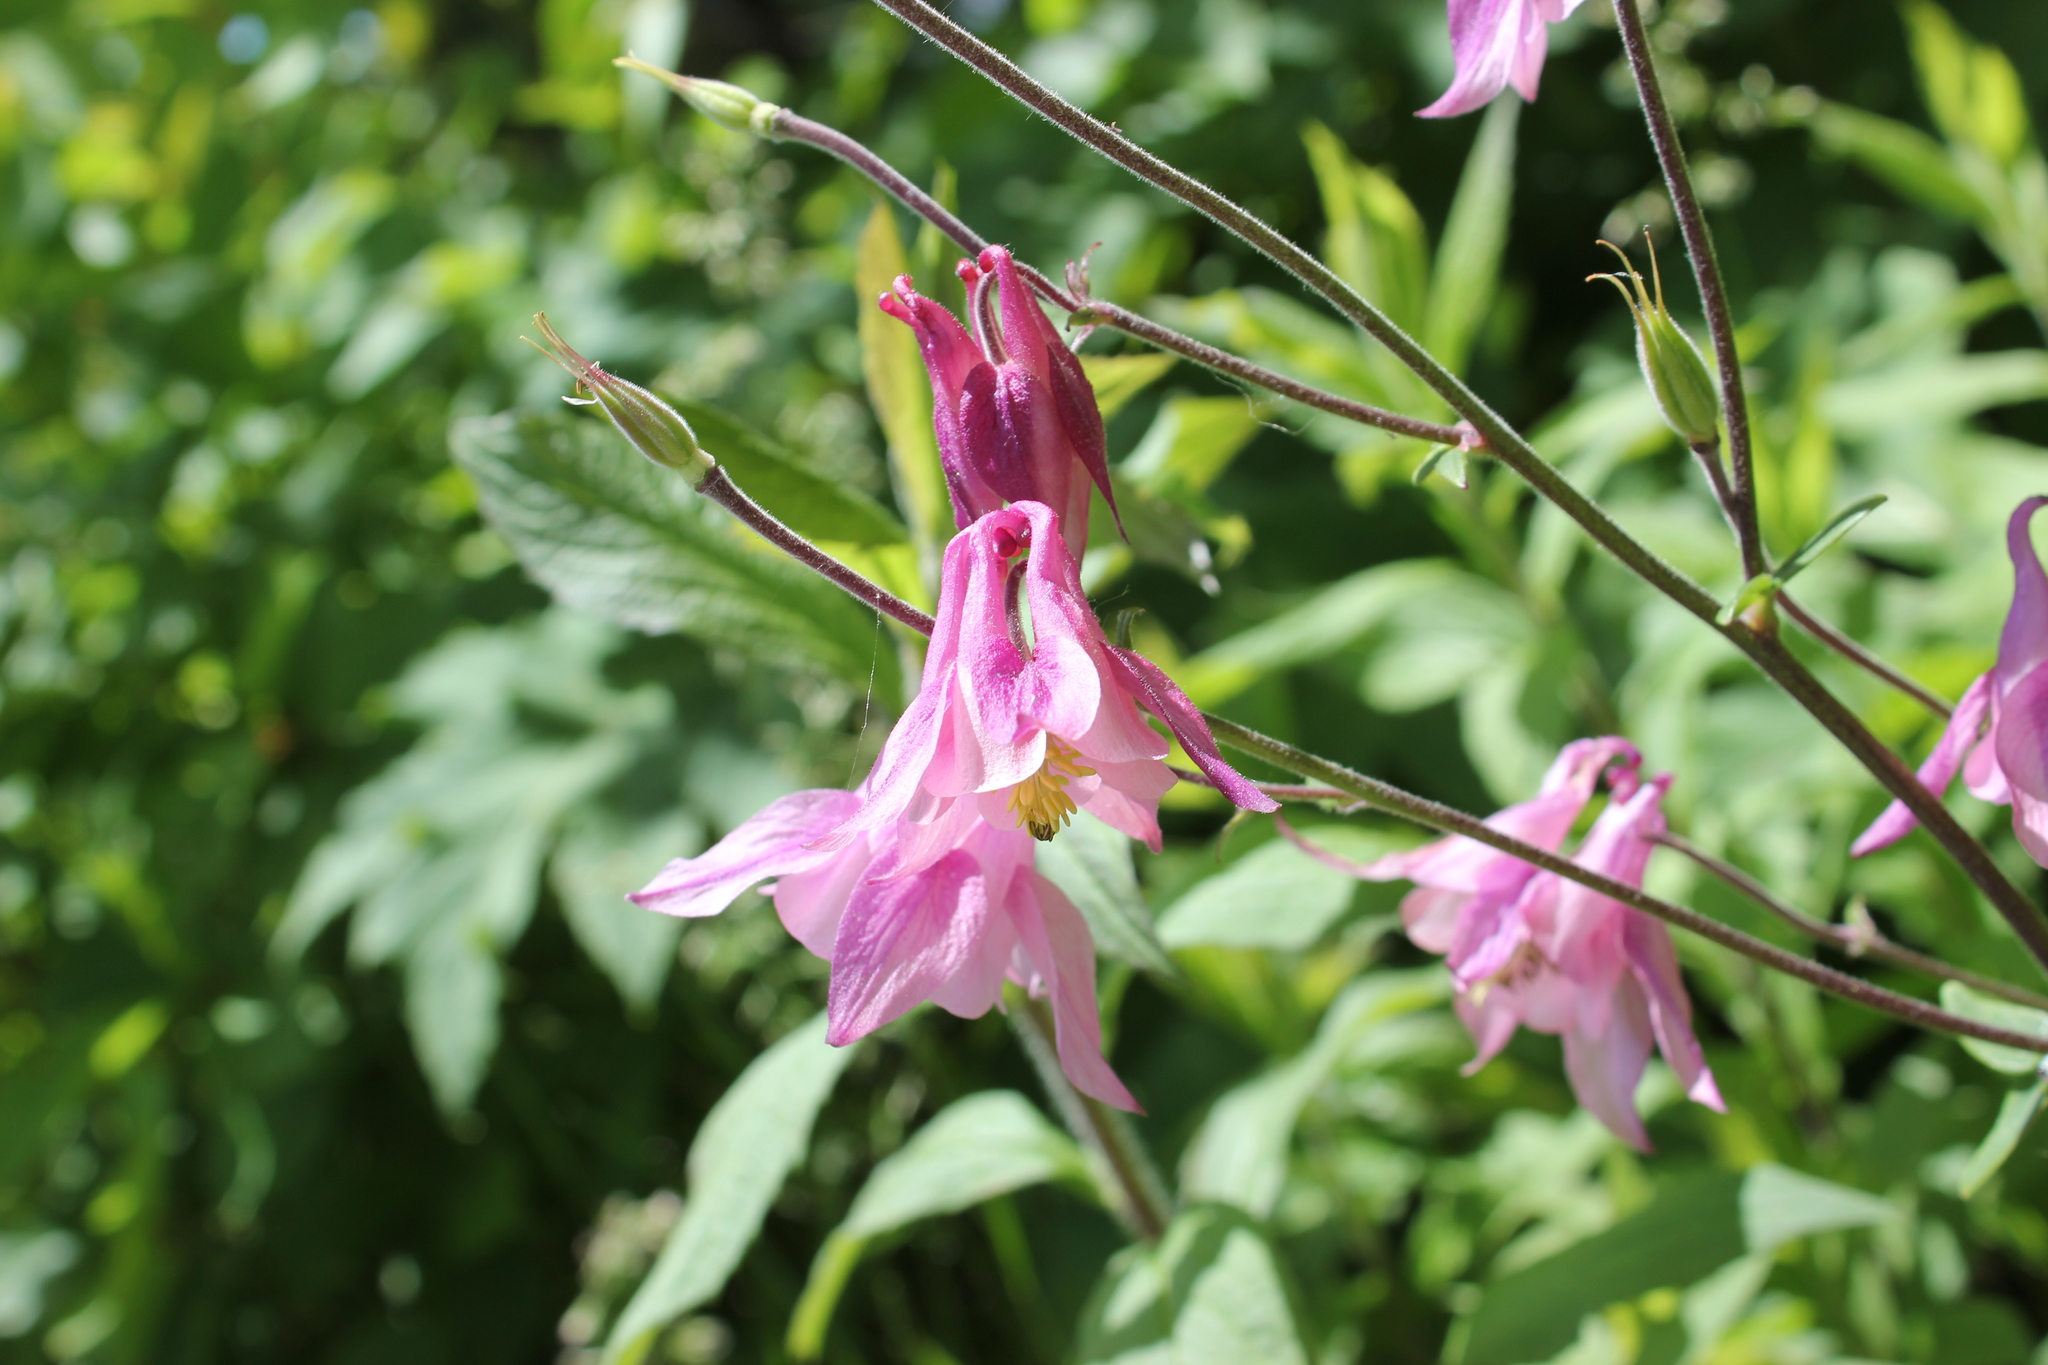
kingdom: Plantae
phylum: Tracheophyta
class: Magnoliopsida
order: Ranunculales
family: Ranunculaceae
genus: Aquilegia
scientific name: Aquilegia vulgaris
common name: Columbine
